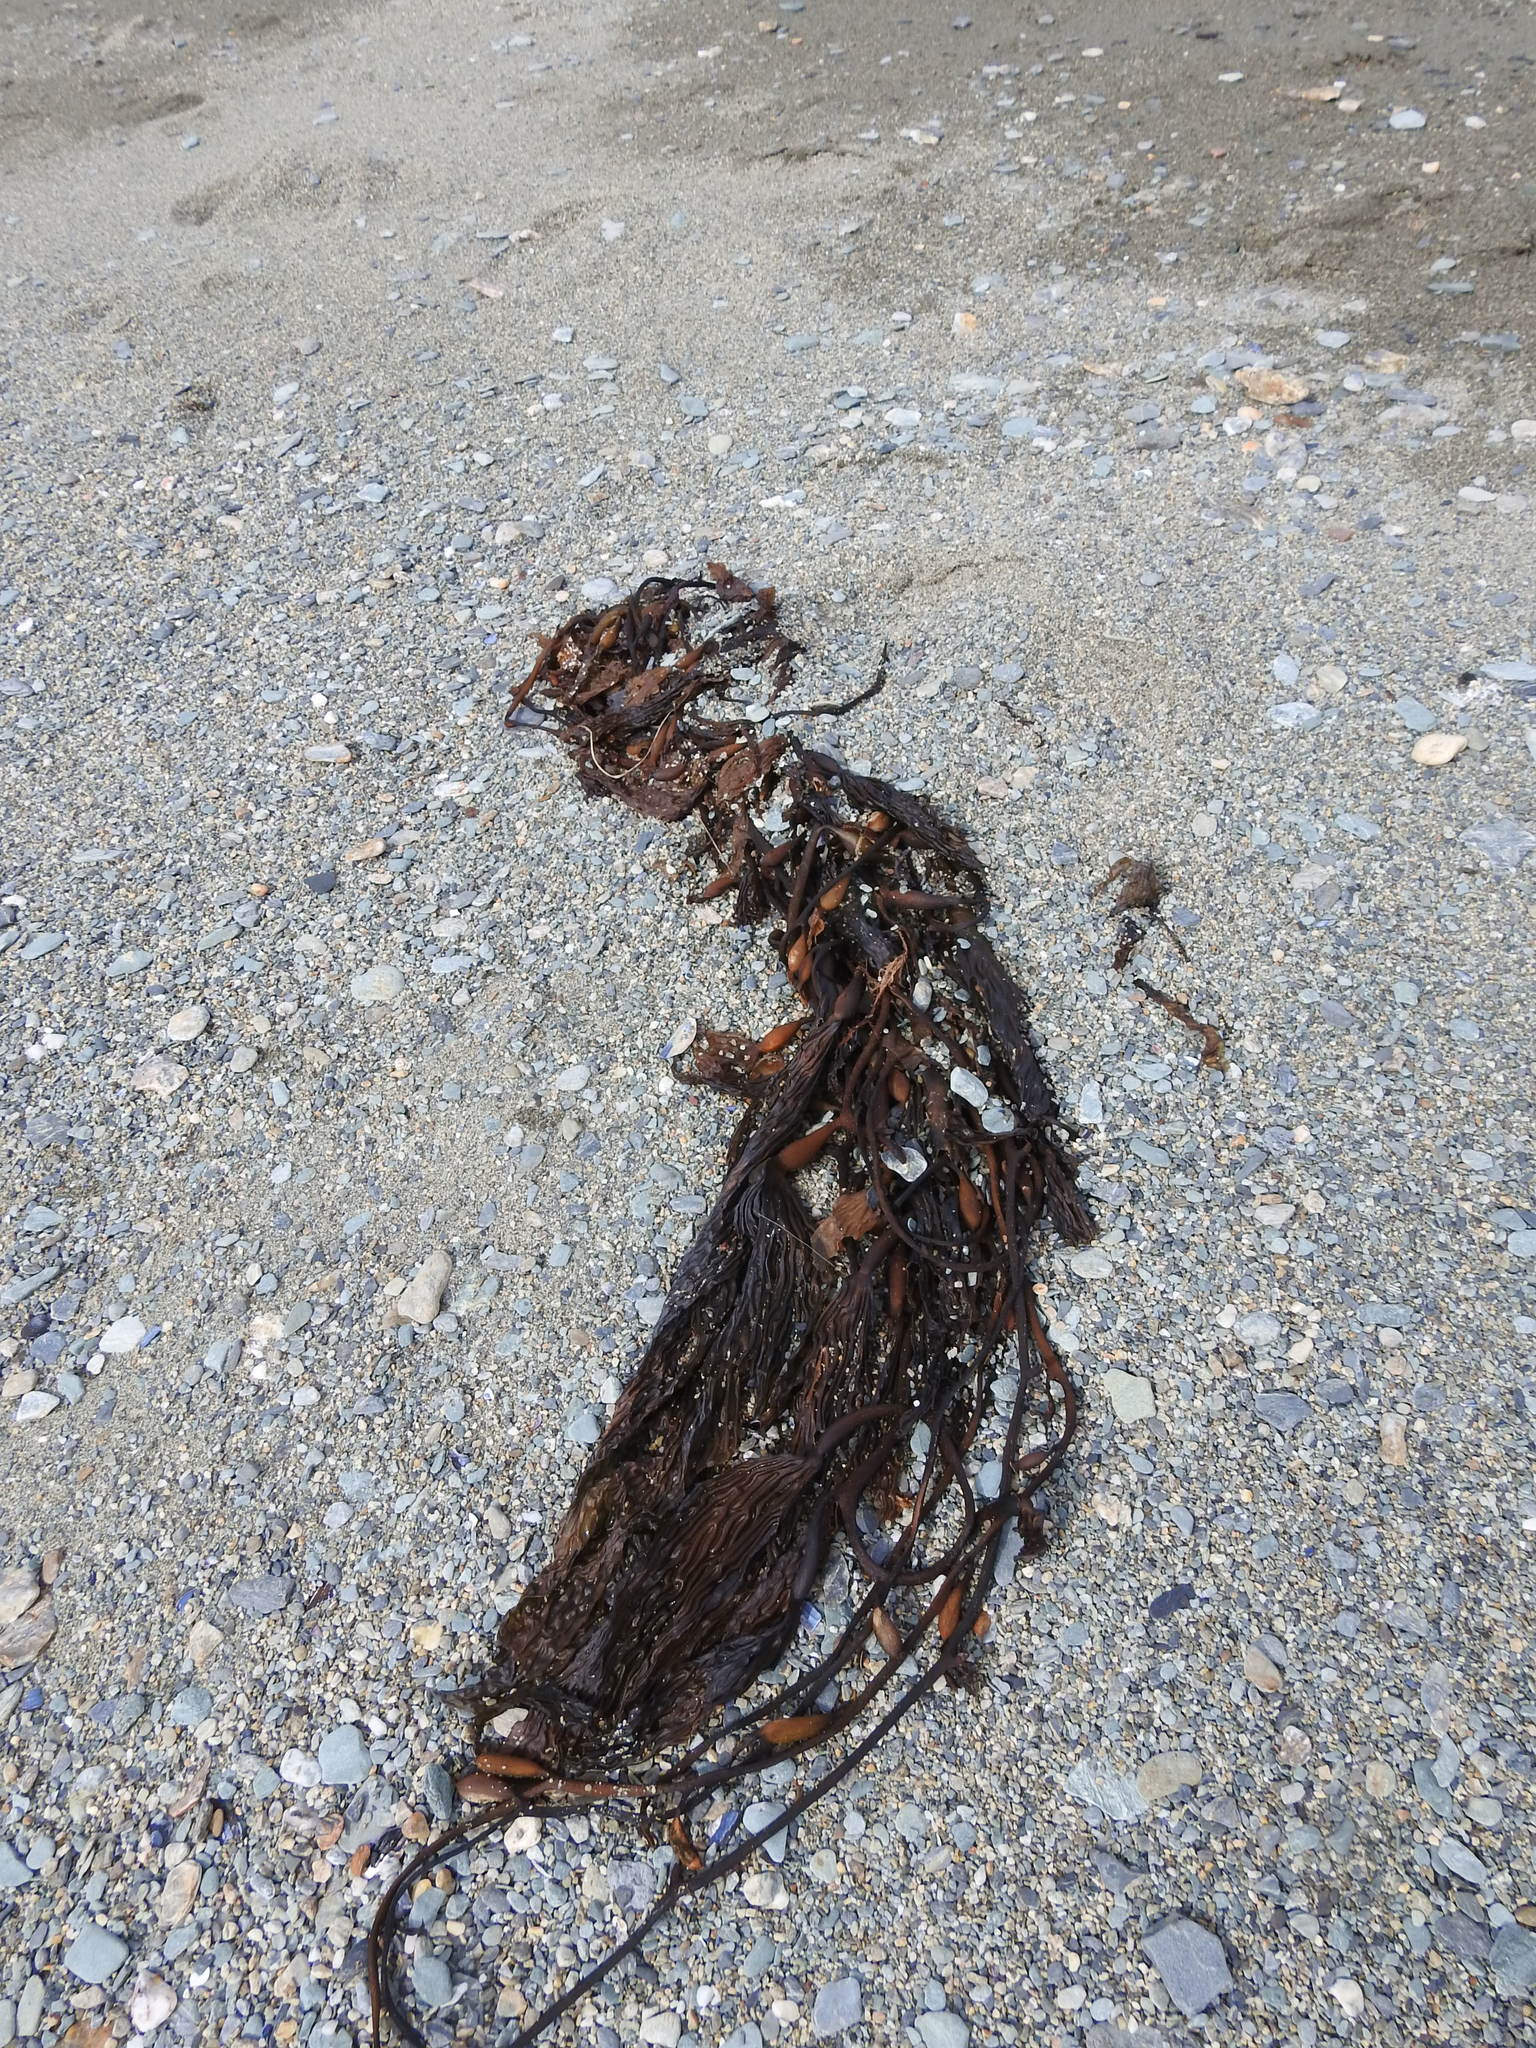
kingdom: Chromista
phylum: Ochrophyta
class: Phaeophyceae
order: Laminariales
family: Laminariaceae
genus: Macrocystis
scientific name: Macrocystis pyrifera
